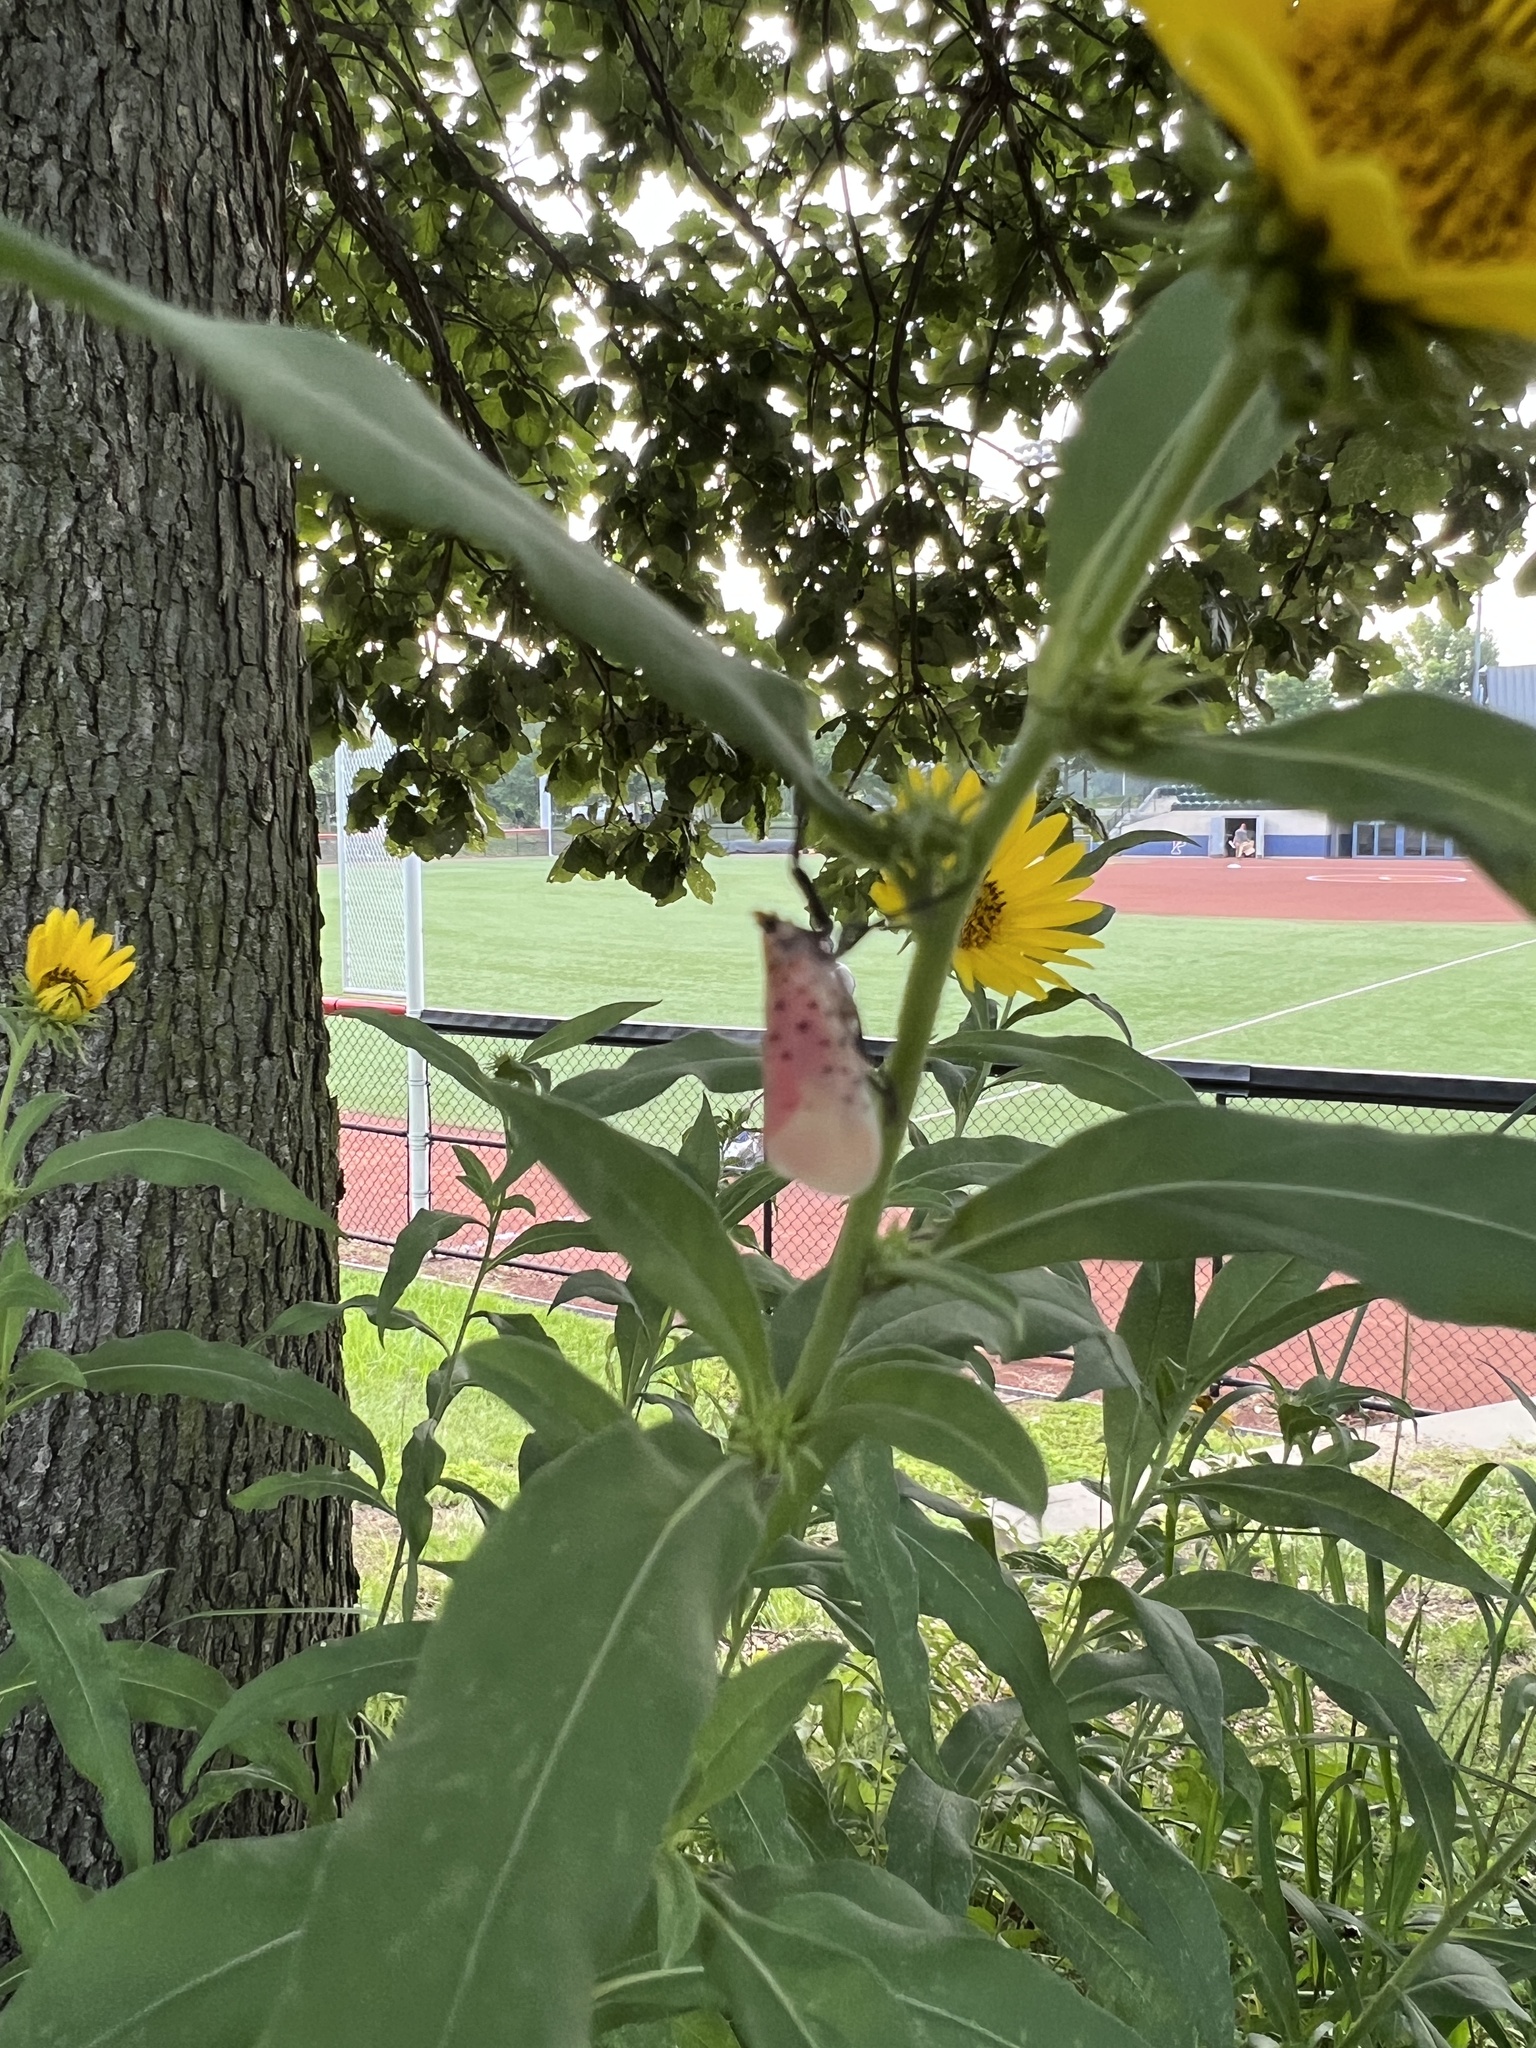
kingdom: Animalia
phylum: Arthropoda
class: Insecta
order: Hemiptera
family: Fulgoridae
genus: Lycorma
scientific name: Lycorma delicatula
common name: Spotted lanternfly
